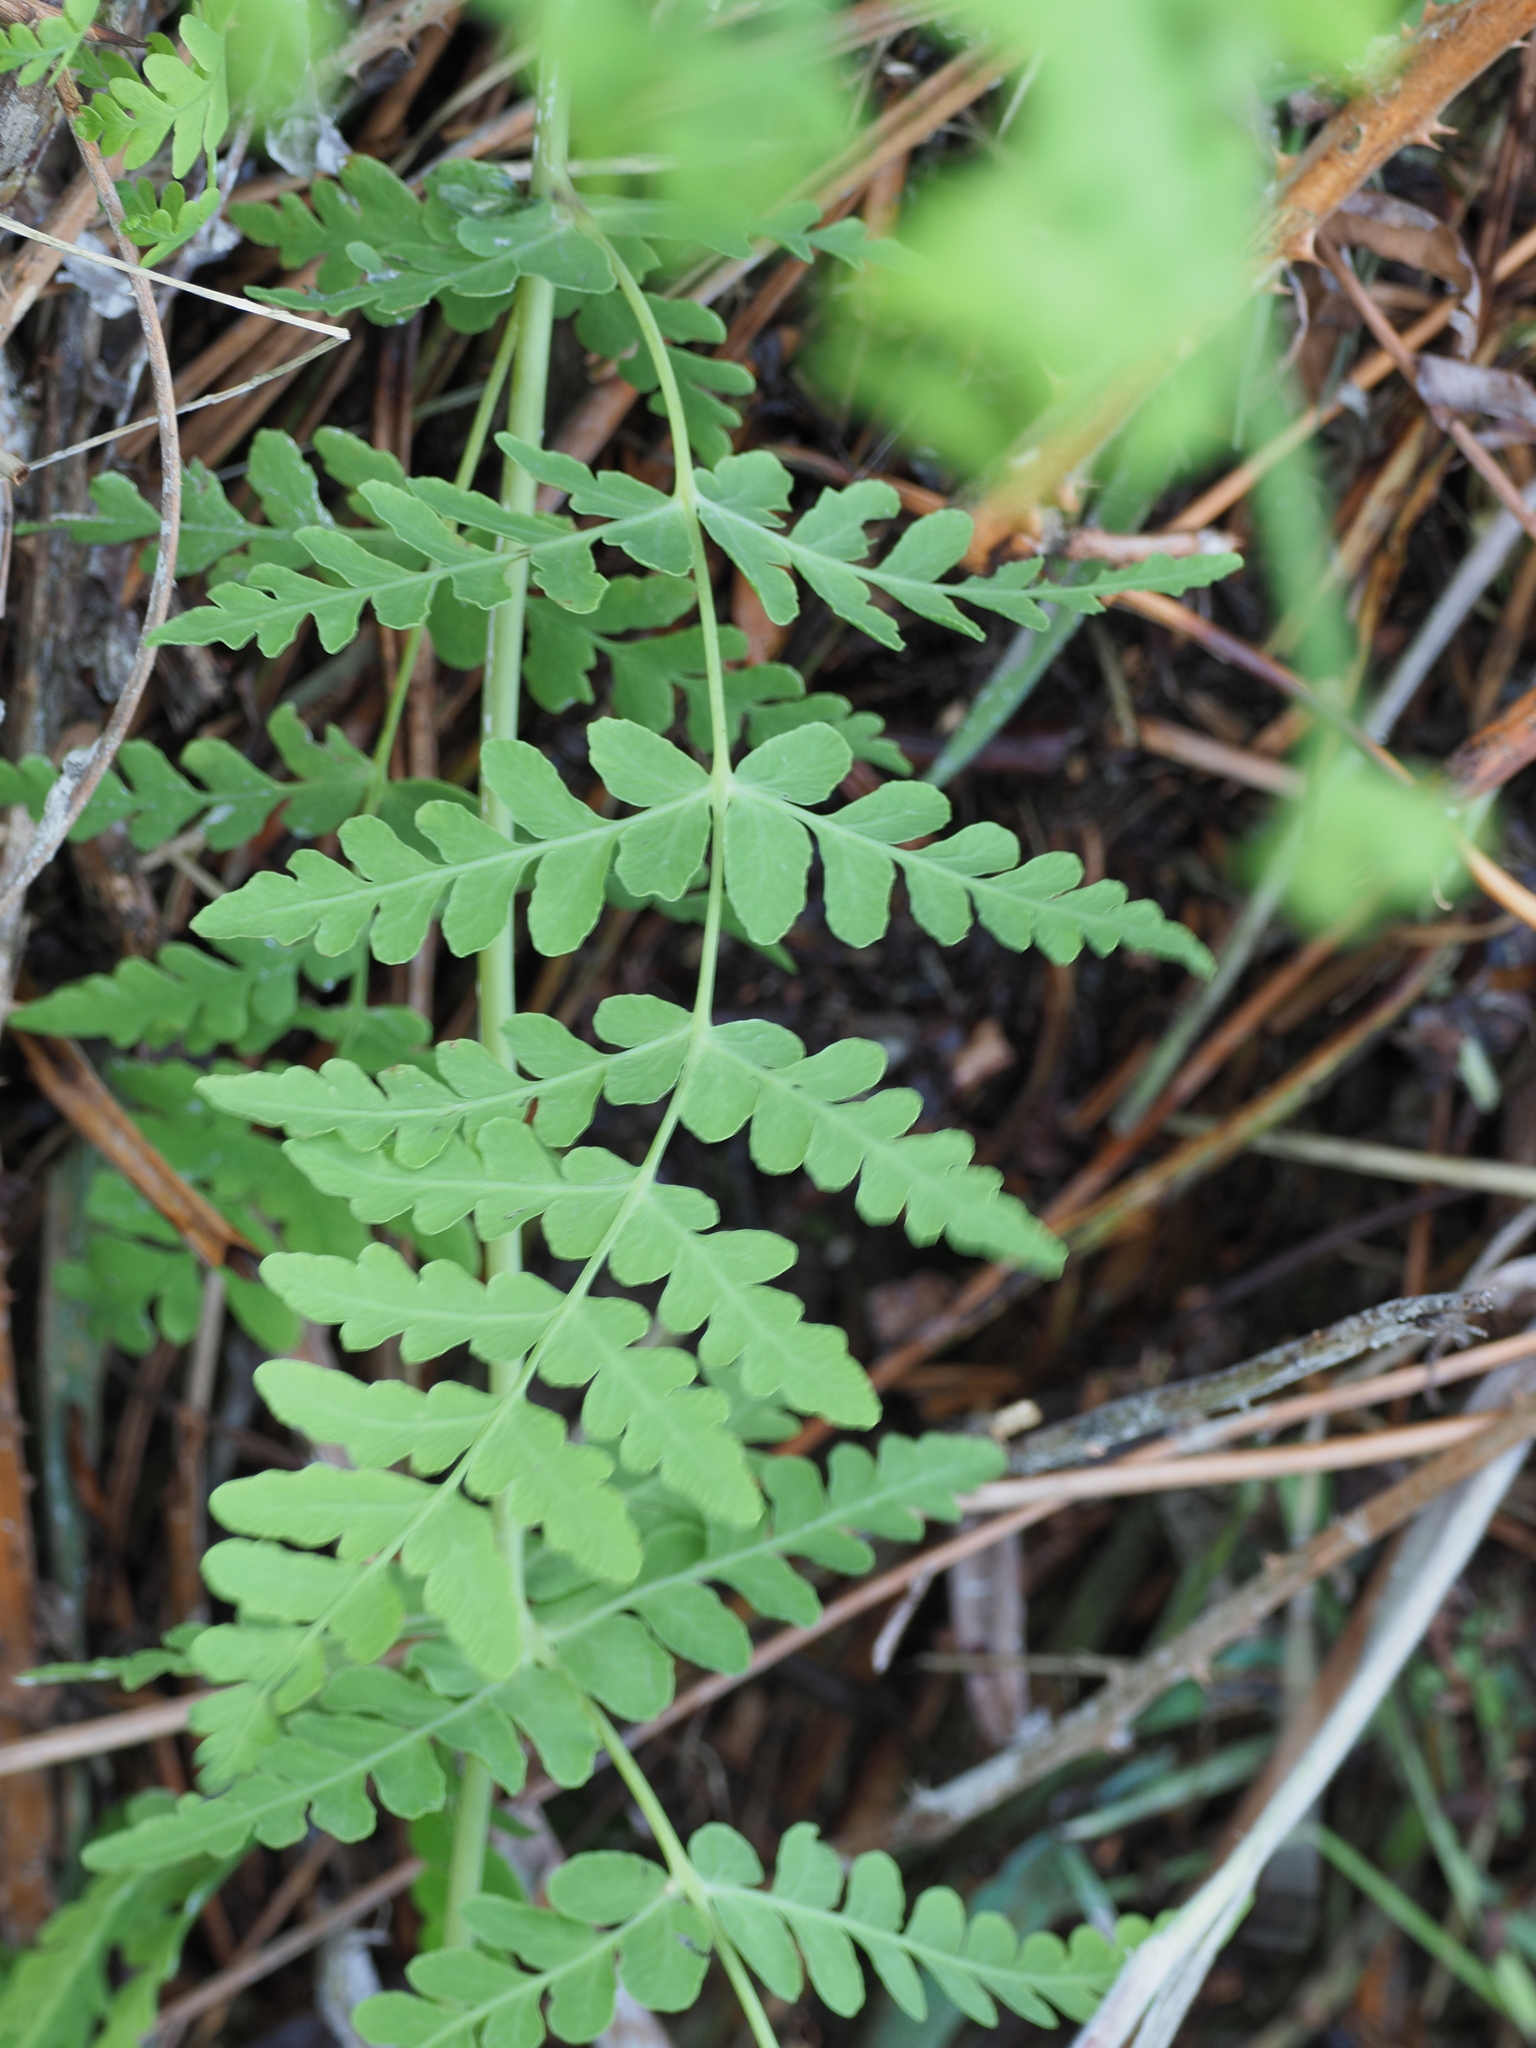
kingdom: Plantae
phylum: Tracheophyta
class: Polypodiopsida
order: Polypodiales
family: Dennstaedtiaceae
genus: Histiopteris
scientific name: Histiopteris incisa
